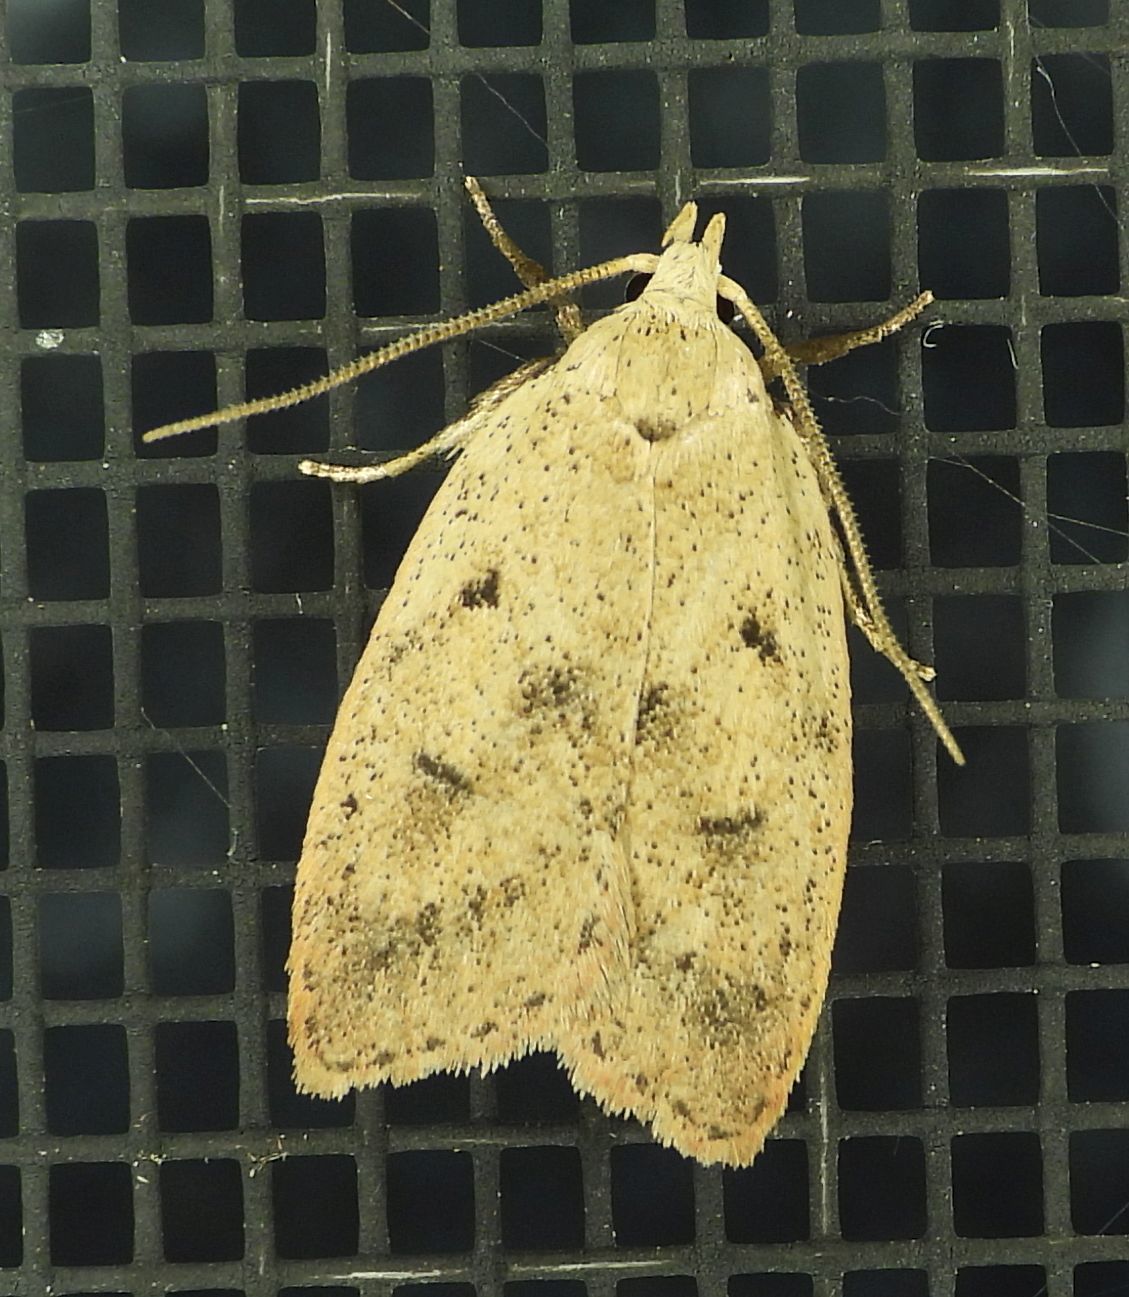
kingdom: Animalia
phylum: Arthropoda
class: Insecta
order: Lepidoptera
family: Peleopodidae
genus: Machimia
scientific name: Machimia tentoriferella
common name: Gold-striped leaftier moth
